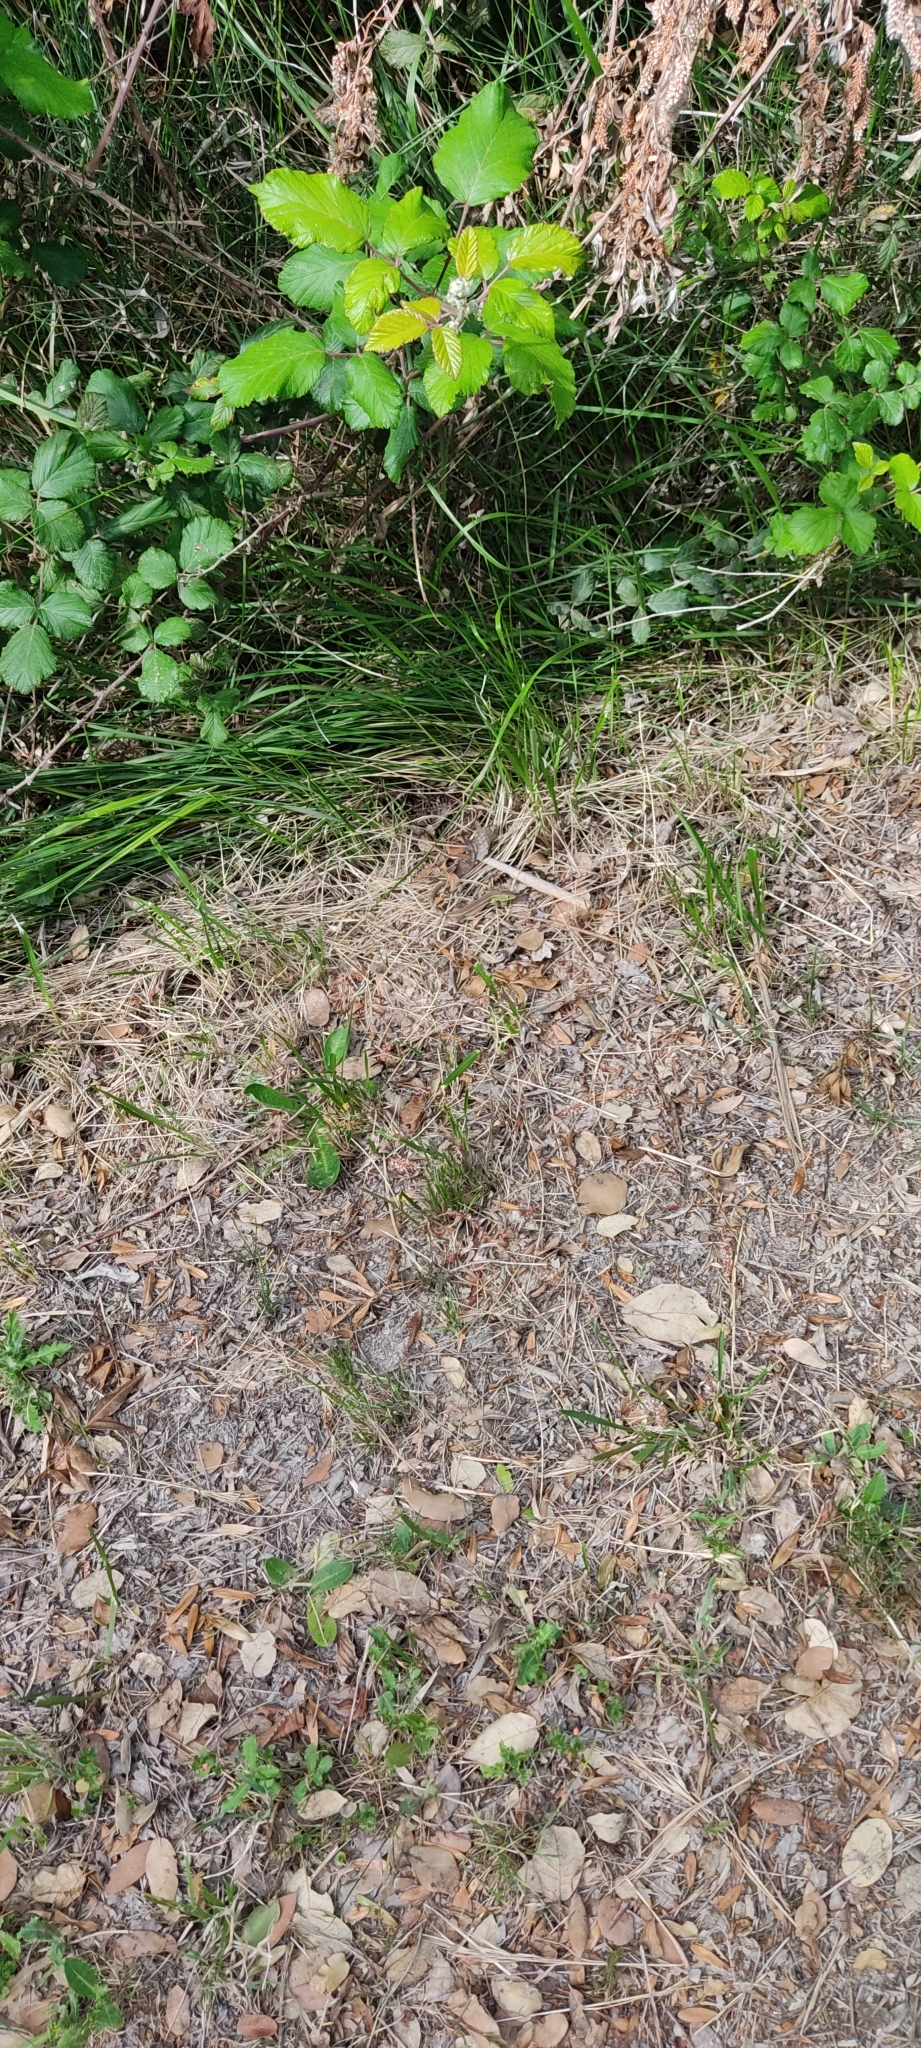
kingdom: Animalia
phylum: Chordata
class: Squamata
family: Lacertidae
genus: Lacerta
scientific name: Lacerta bilineata
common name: Western green lizard
